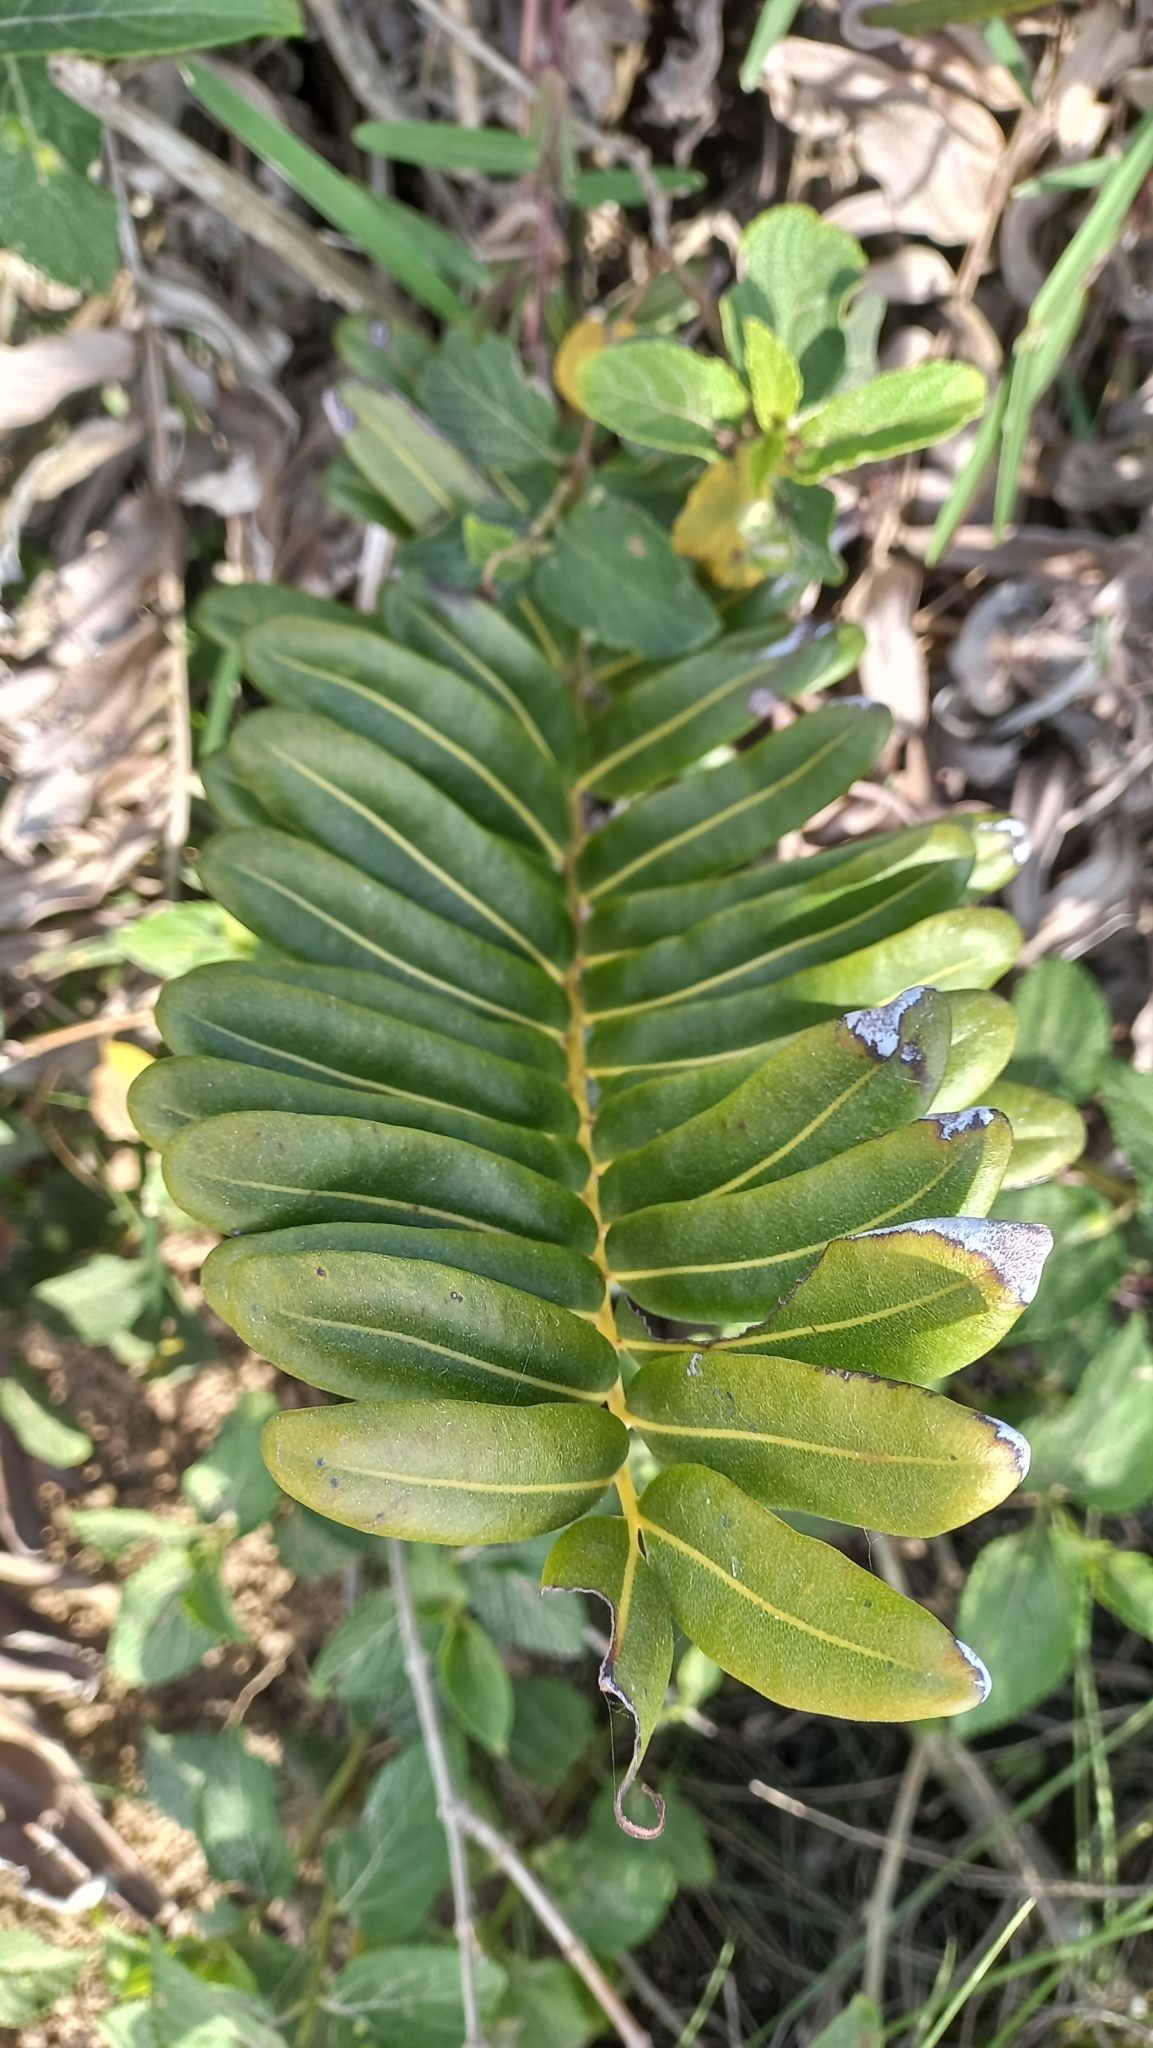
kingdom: Plantae
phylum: Tracheophyta
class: Polypodiopsida
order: Polypodiales
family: Pteridaceae
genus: Acrostichum
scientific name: Acrostichum danaeifolium
